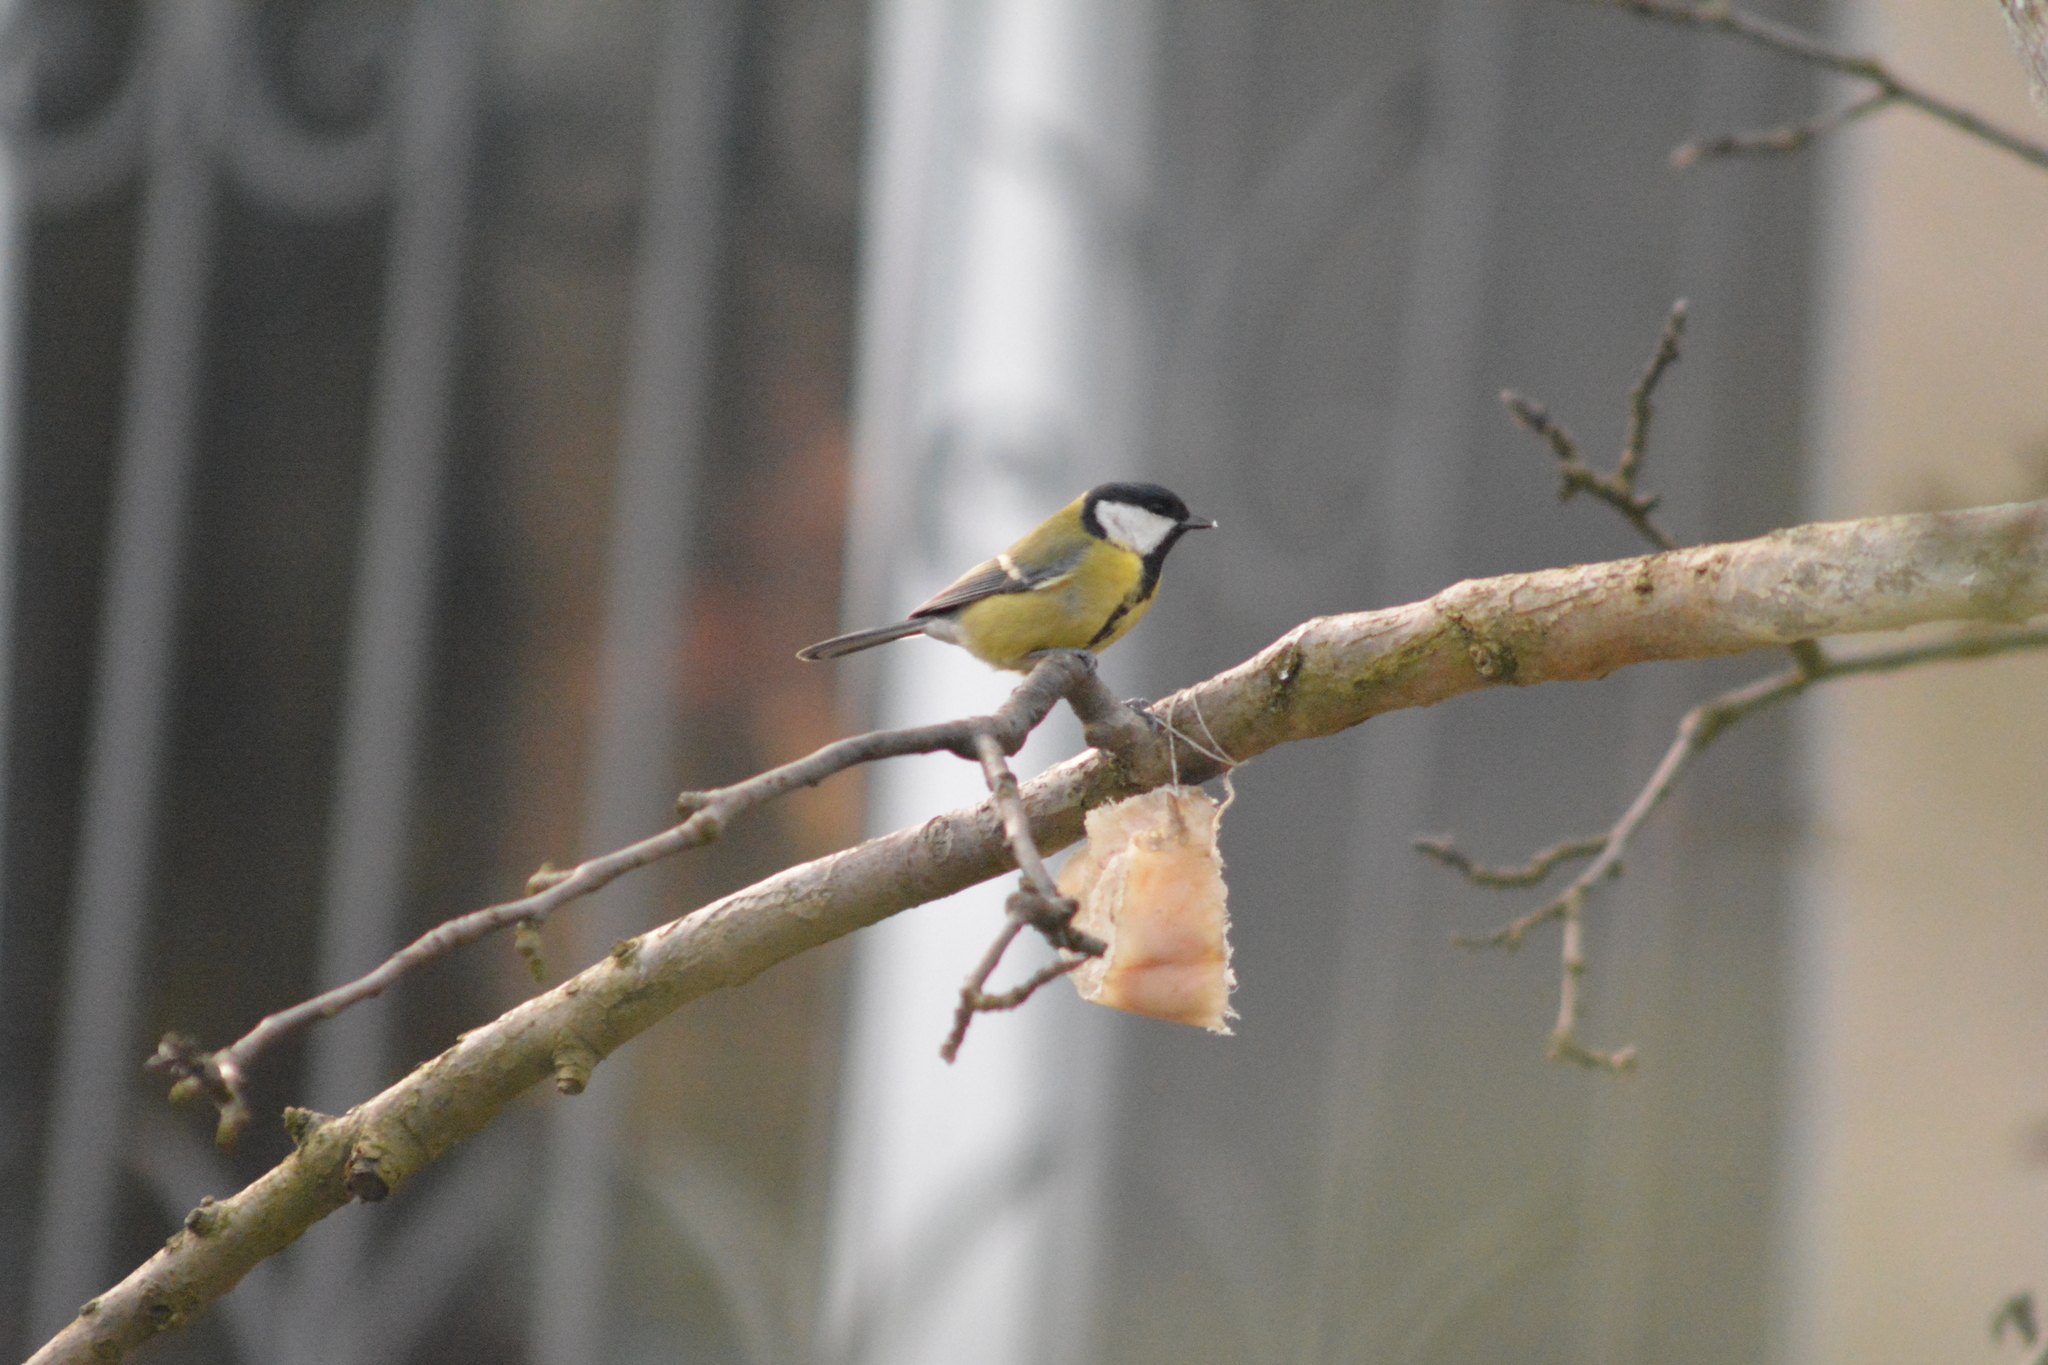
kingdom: Animalia
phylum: Chordata
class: Aves
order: Passeriformes
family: Paridae
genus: Parus
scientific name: Parus major
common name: Great tit
